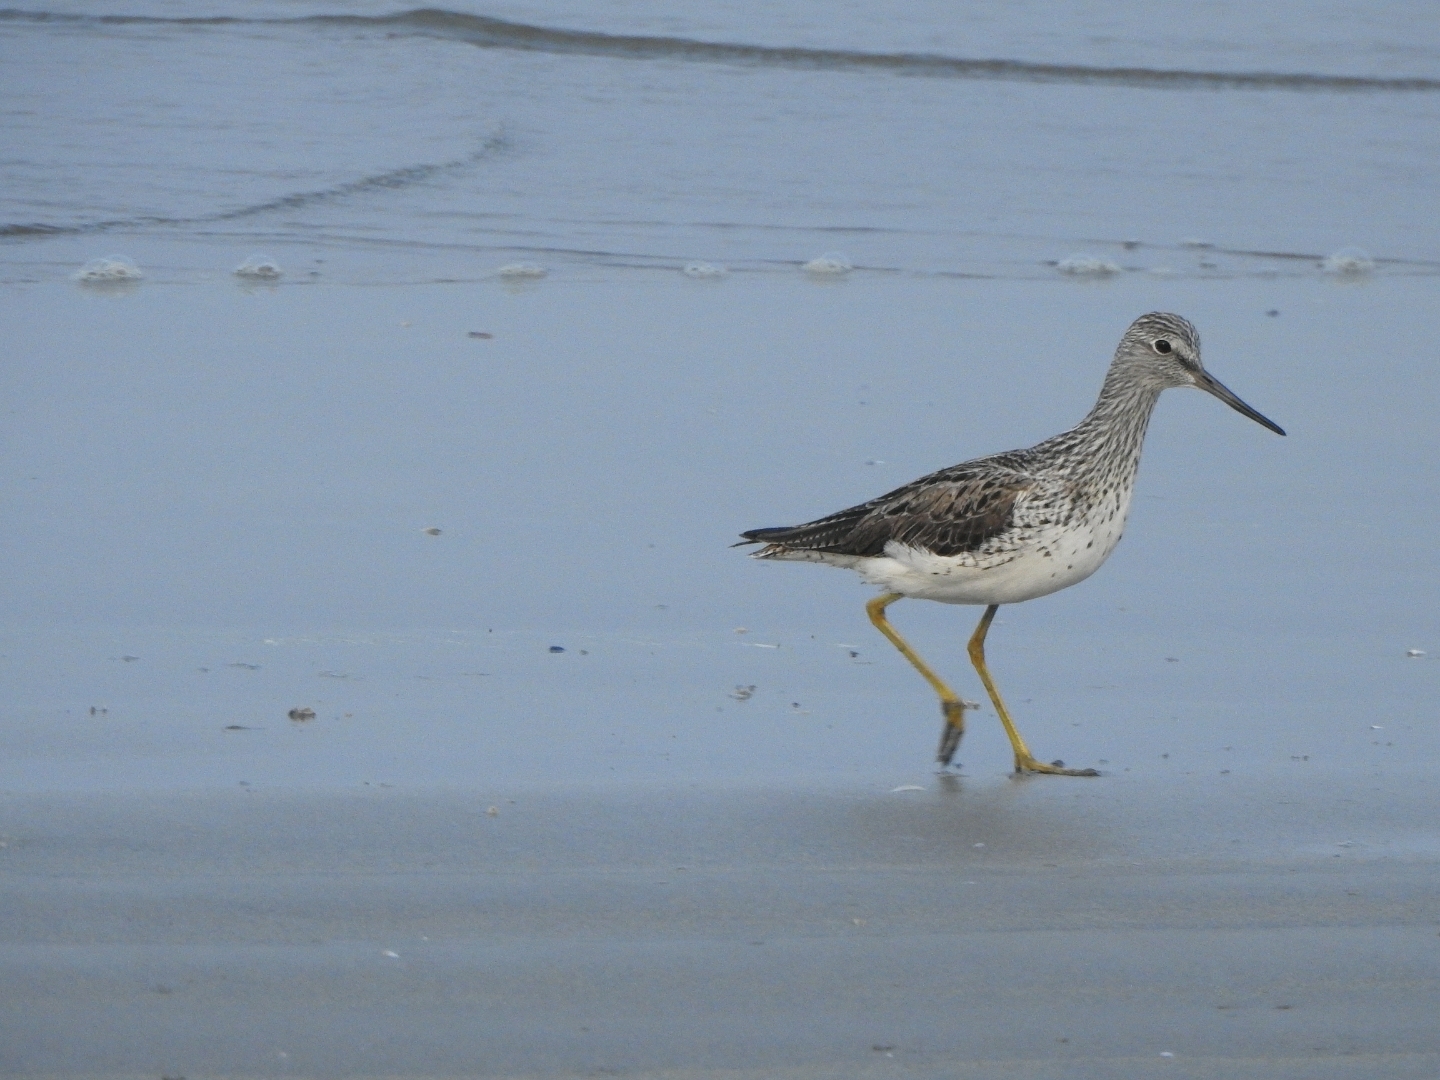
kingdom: Animalia
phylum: Chordata
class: Aves
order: Charadriiformes
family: Scolopacidae
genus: Tringa
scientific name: Tringa nebularia
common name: Common greenshank
